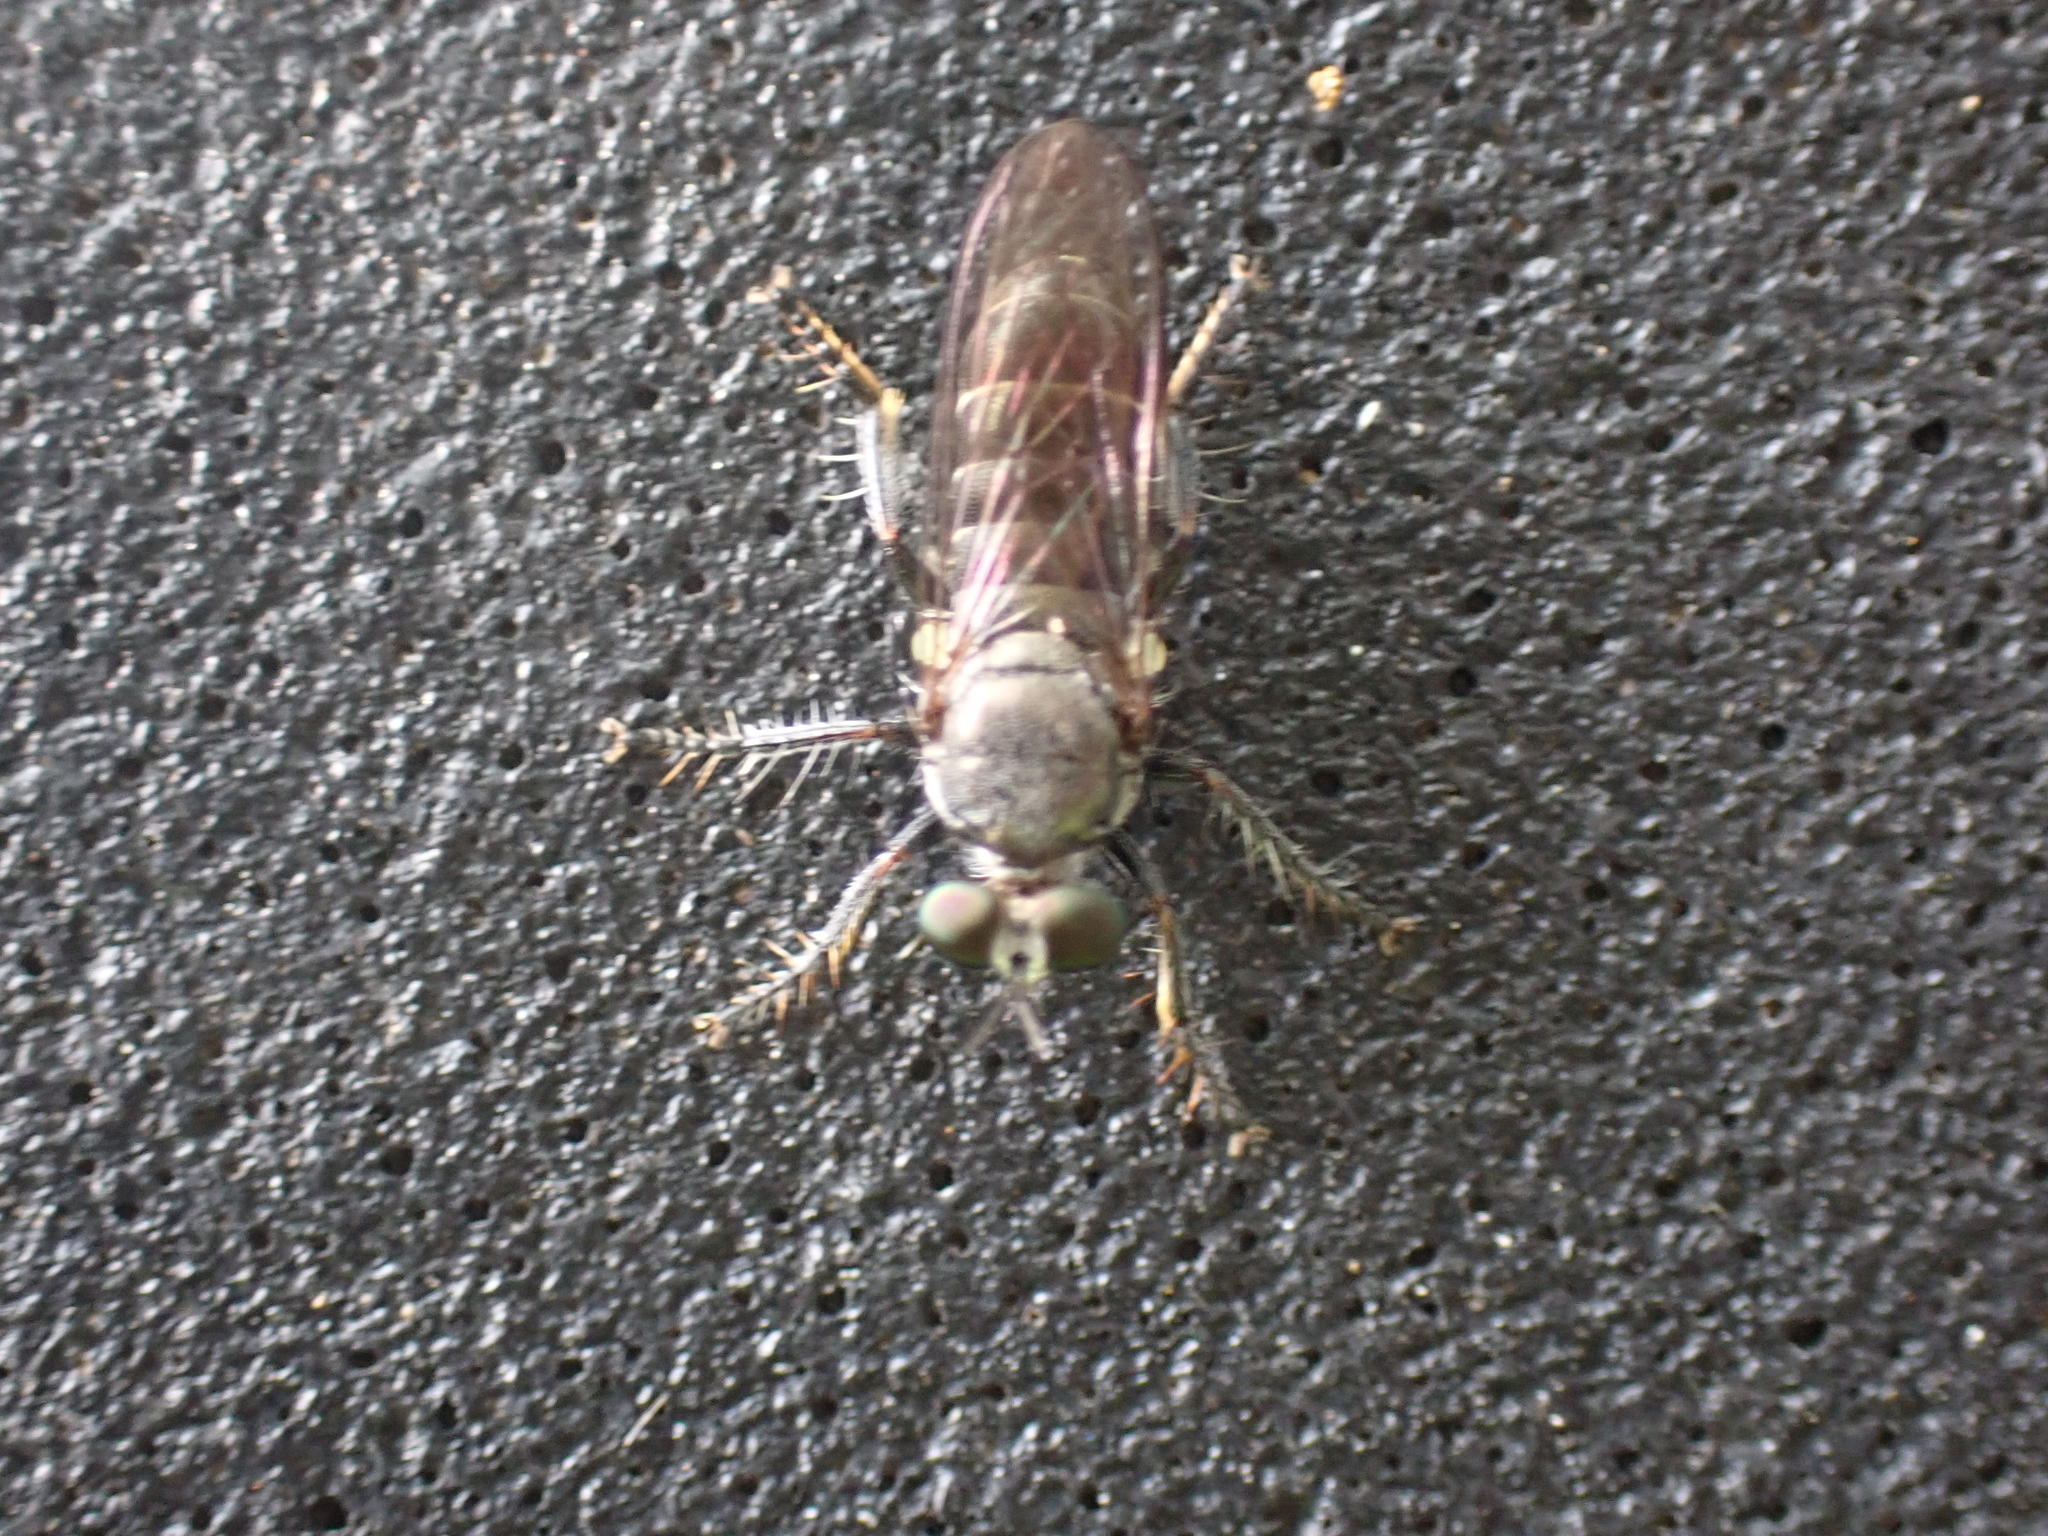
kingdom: Animalia
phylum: Arthropoda
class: Insecta
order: Diptera
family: Asilidae
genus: Atomosia
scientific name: Atomosia puella
